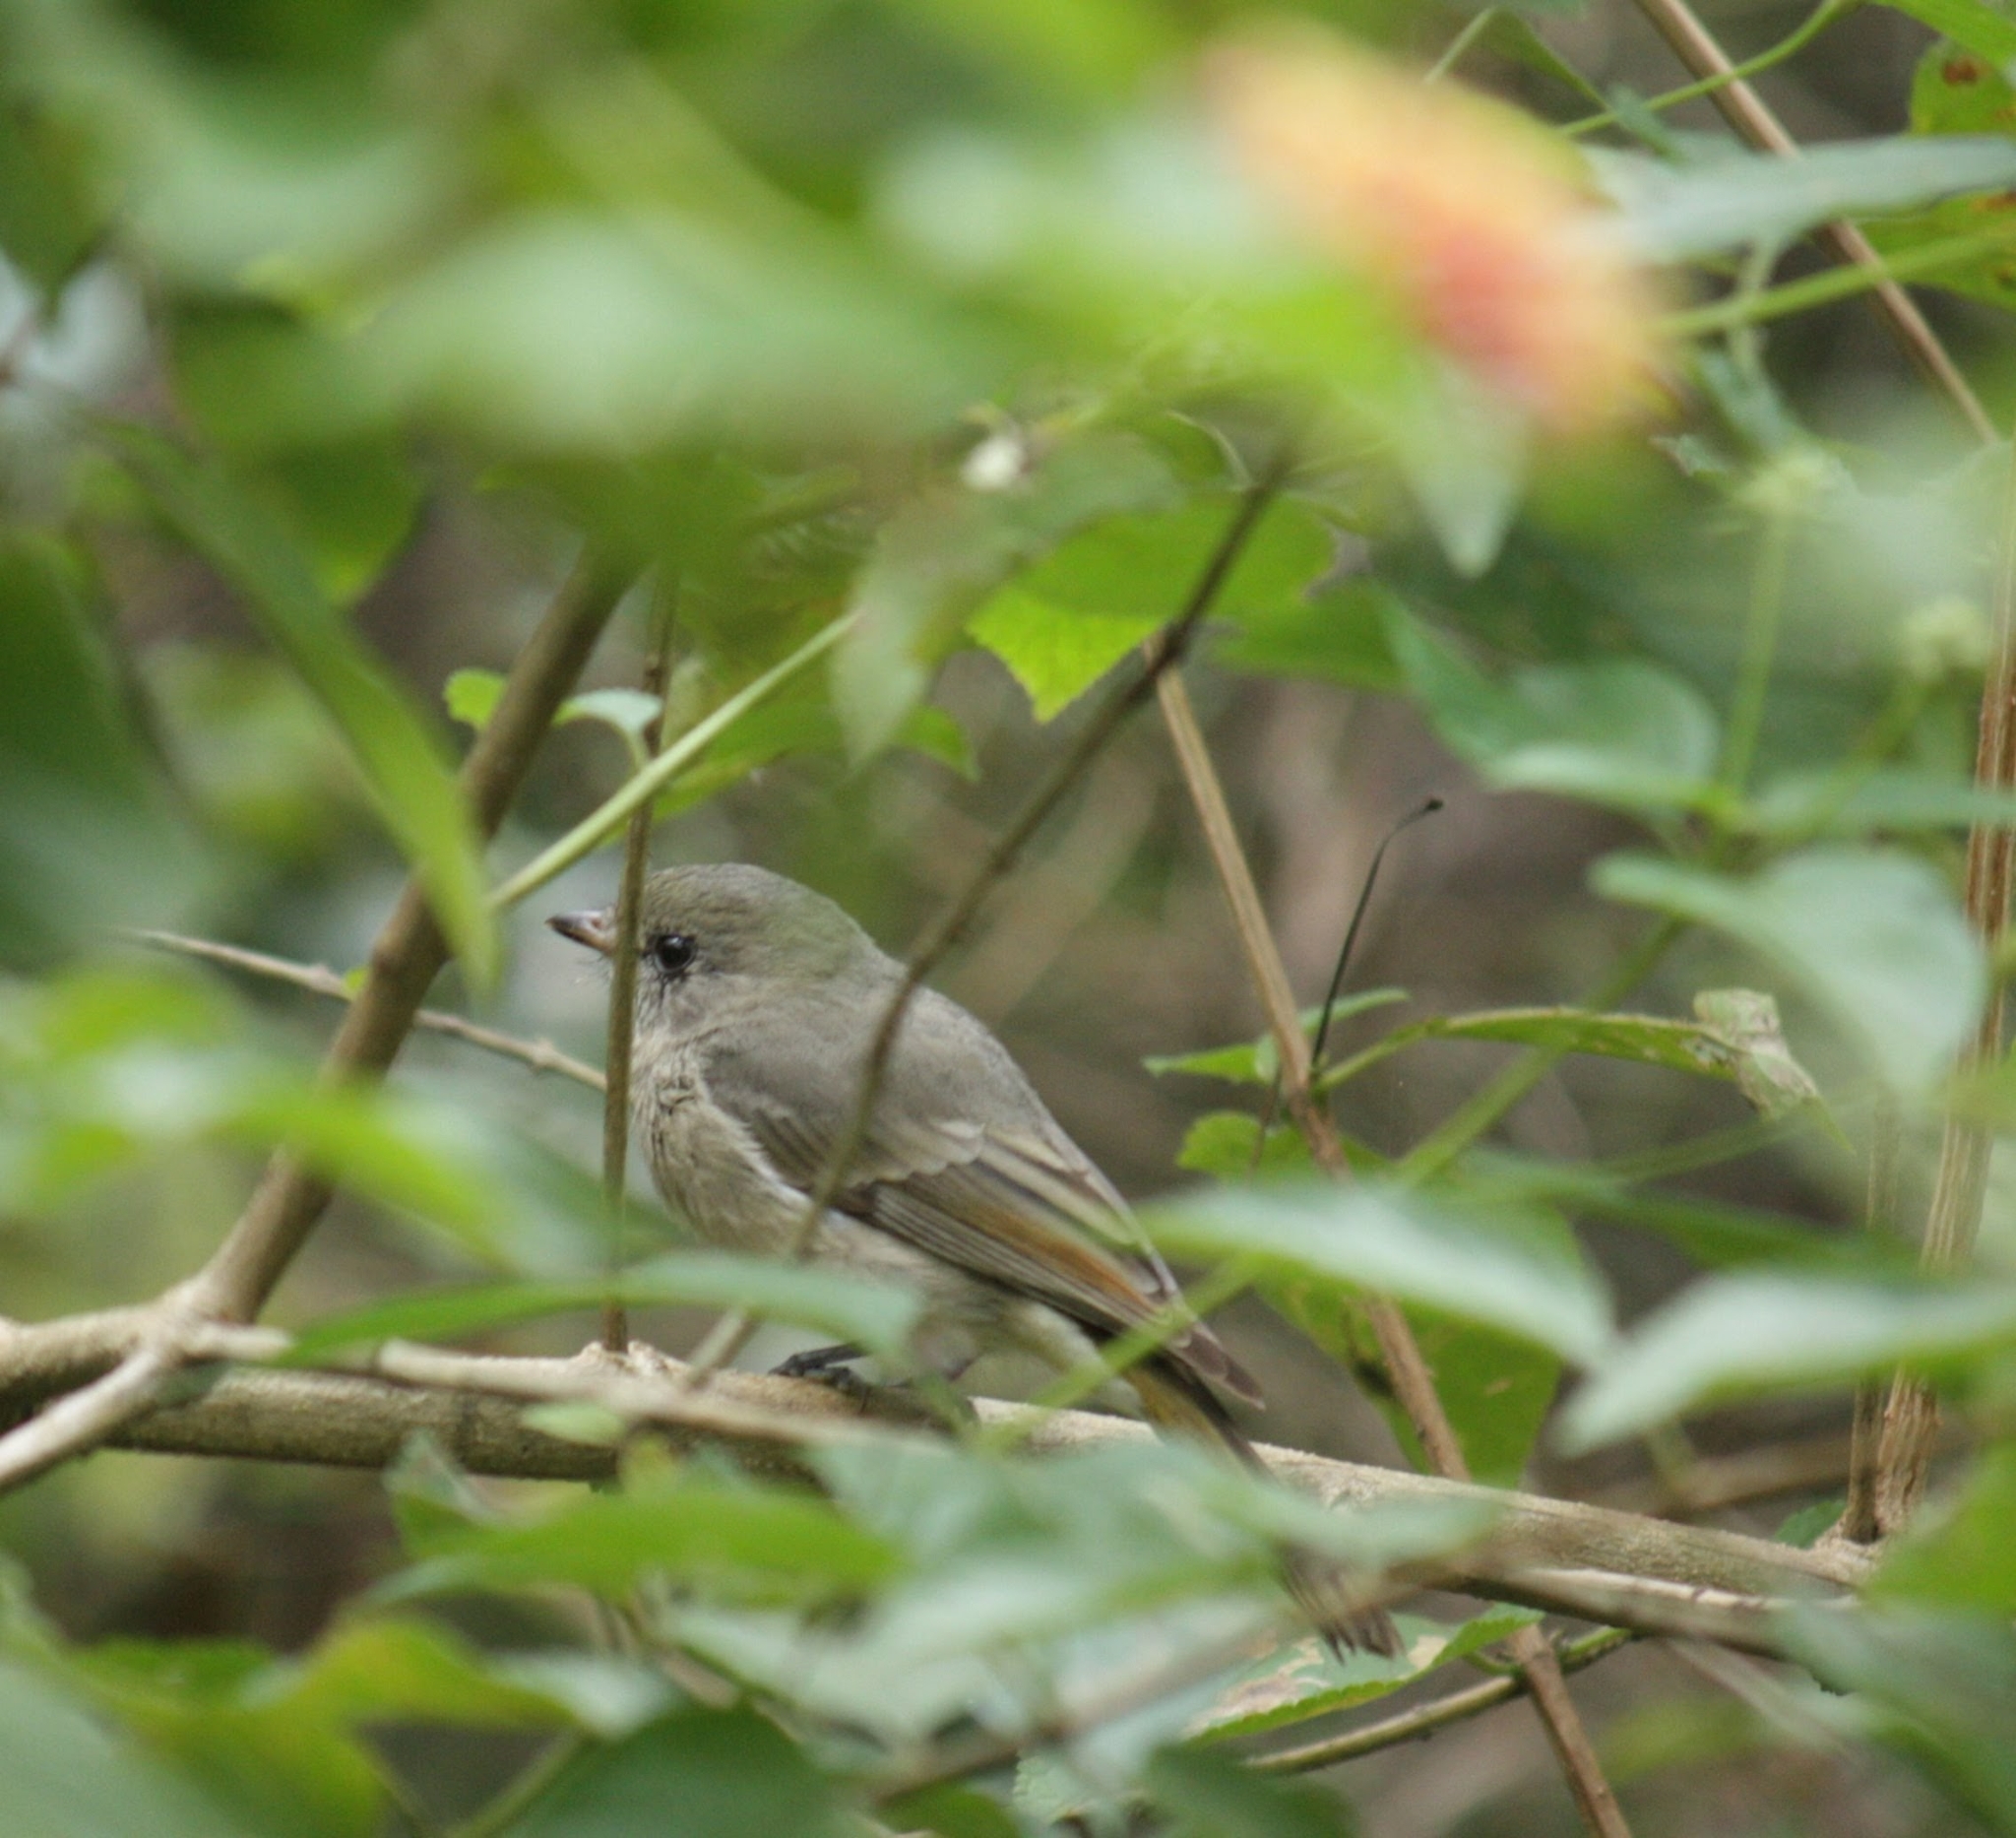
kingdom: Animalia
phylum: Chordata
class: Aves
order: Passeriformes
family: Pachycephalidae
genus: Pachycephala
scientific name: Pachycephala pectoralis
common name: Australian golden whistler
